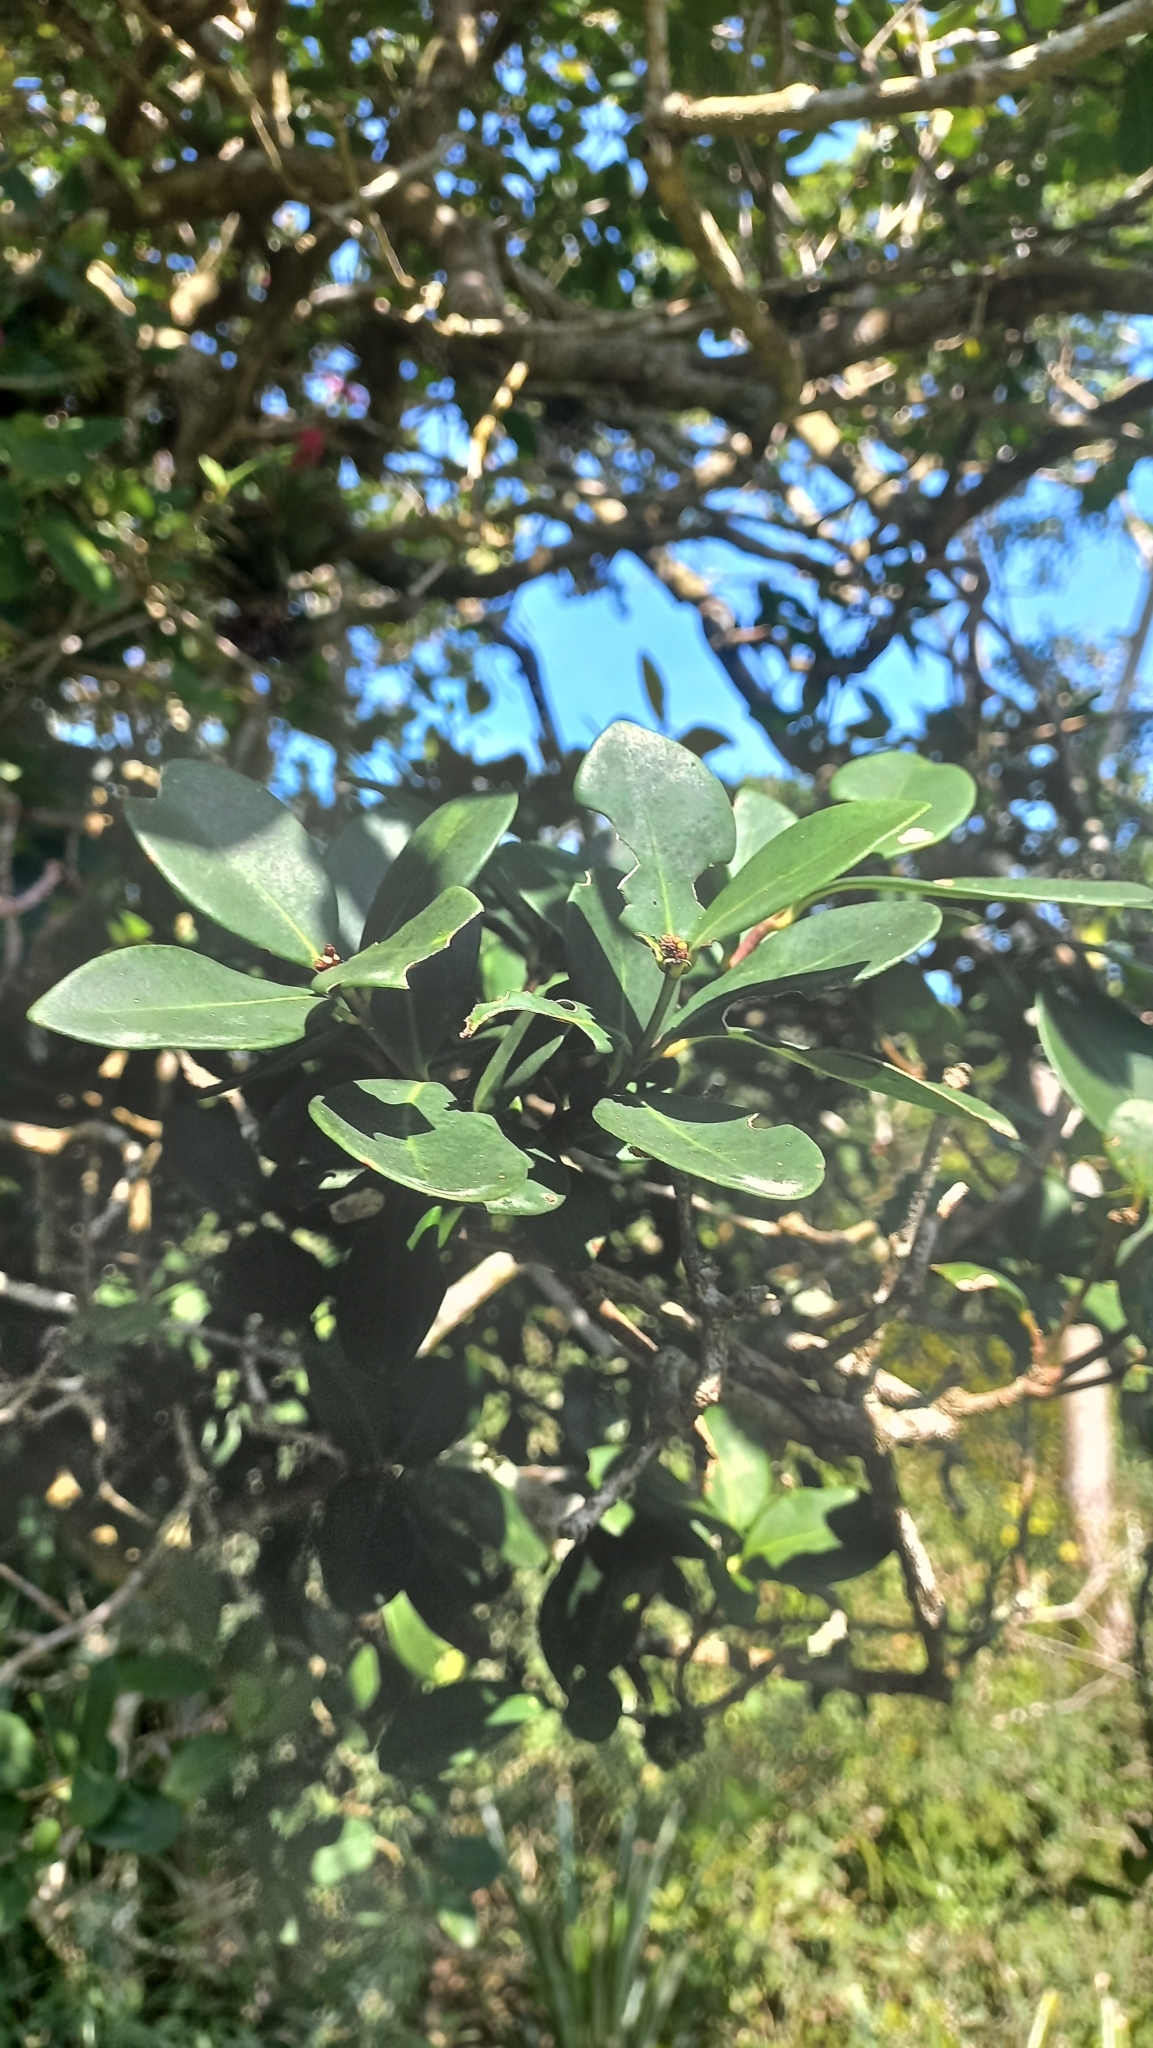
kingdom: Plantae
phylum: Tracheophyta
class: Magnoliopsida
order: Caryophyllales
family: Nyctaginaceae
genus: Guapira
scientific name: Guapira opposita
